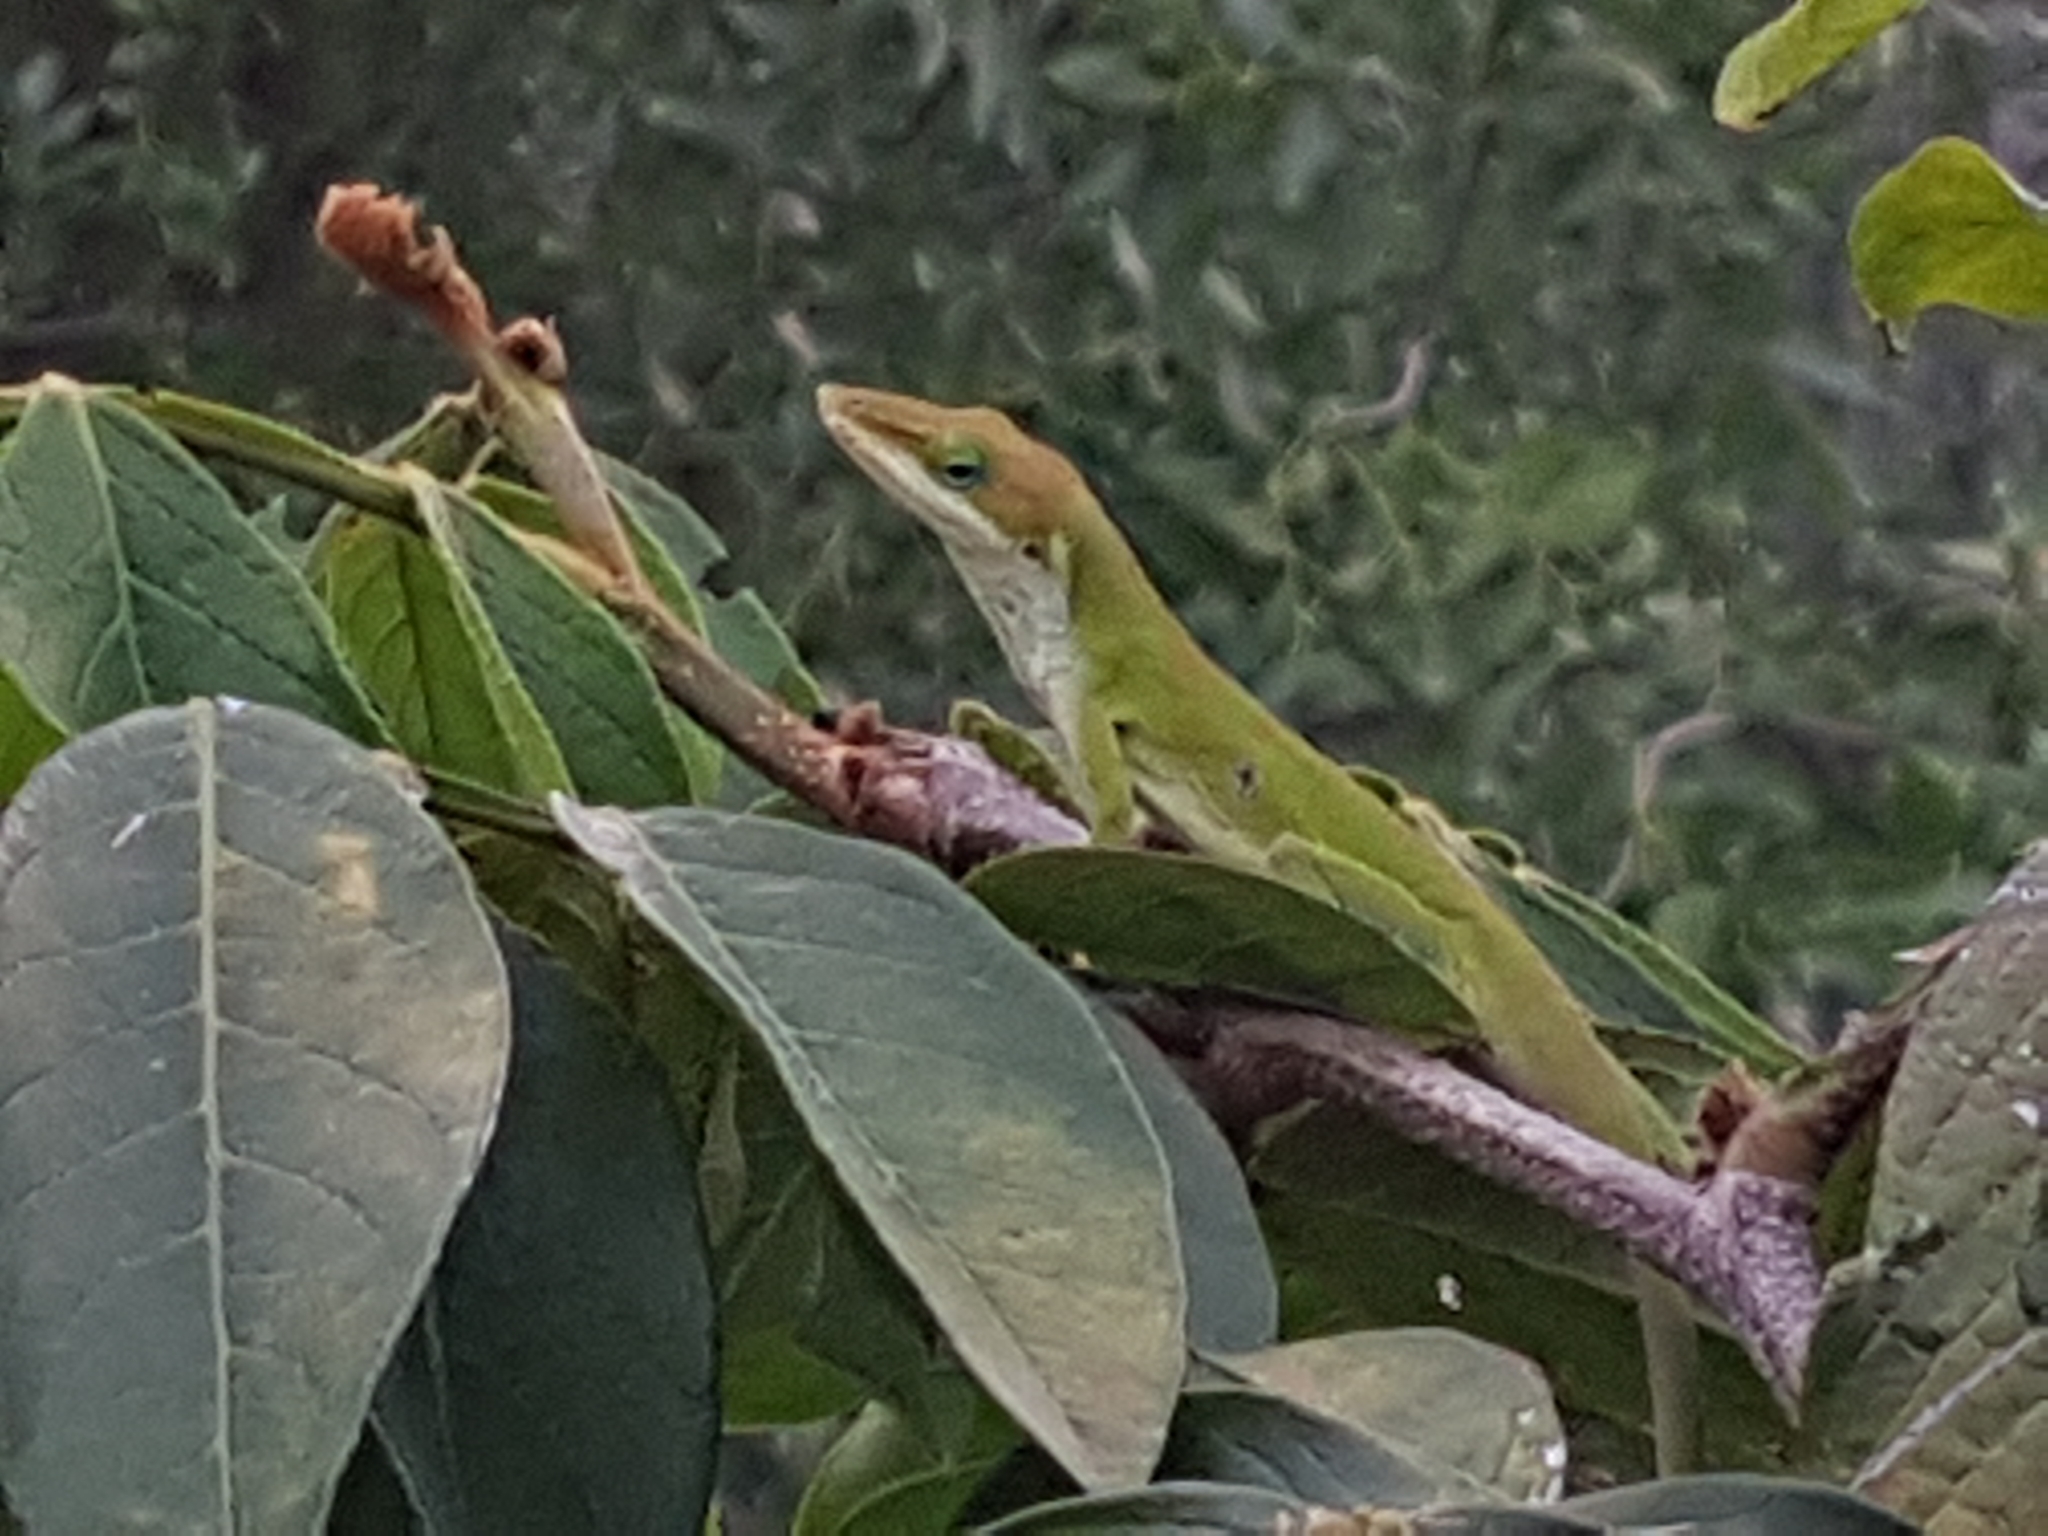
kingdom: Animalia
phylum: Chordata
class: Squamata
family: Dactyloidae
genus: Anolis
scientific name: Anolis carolinensis
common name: Green anole
